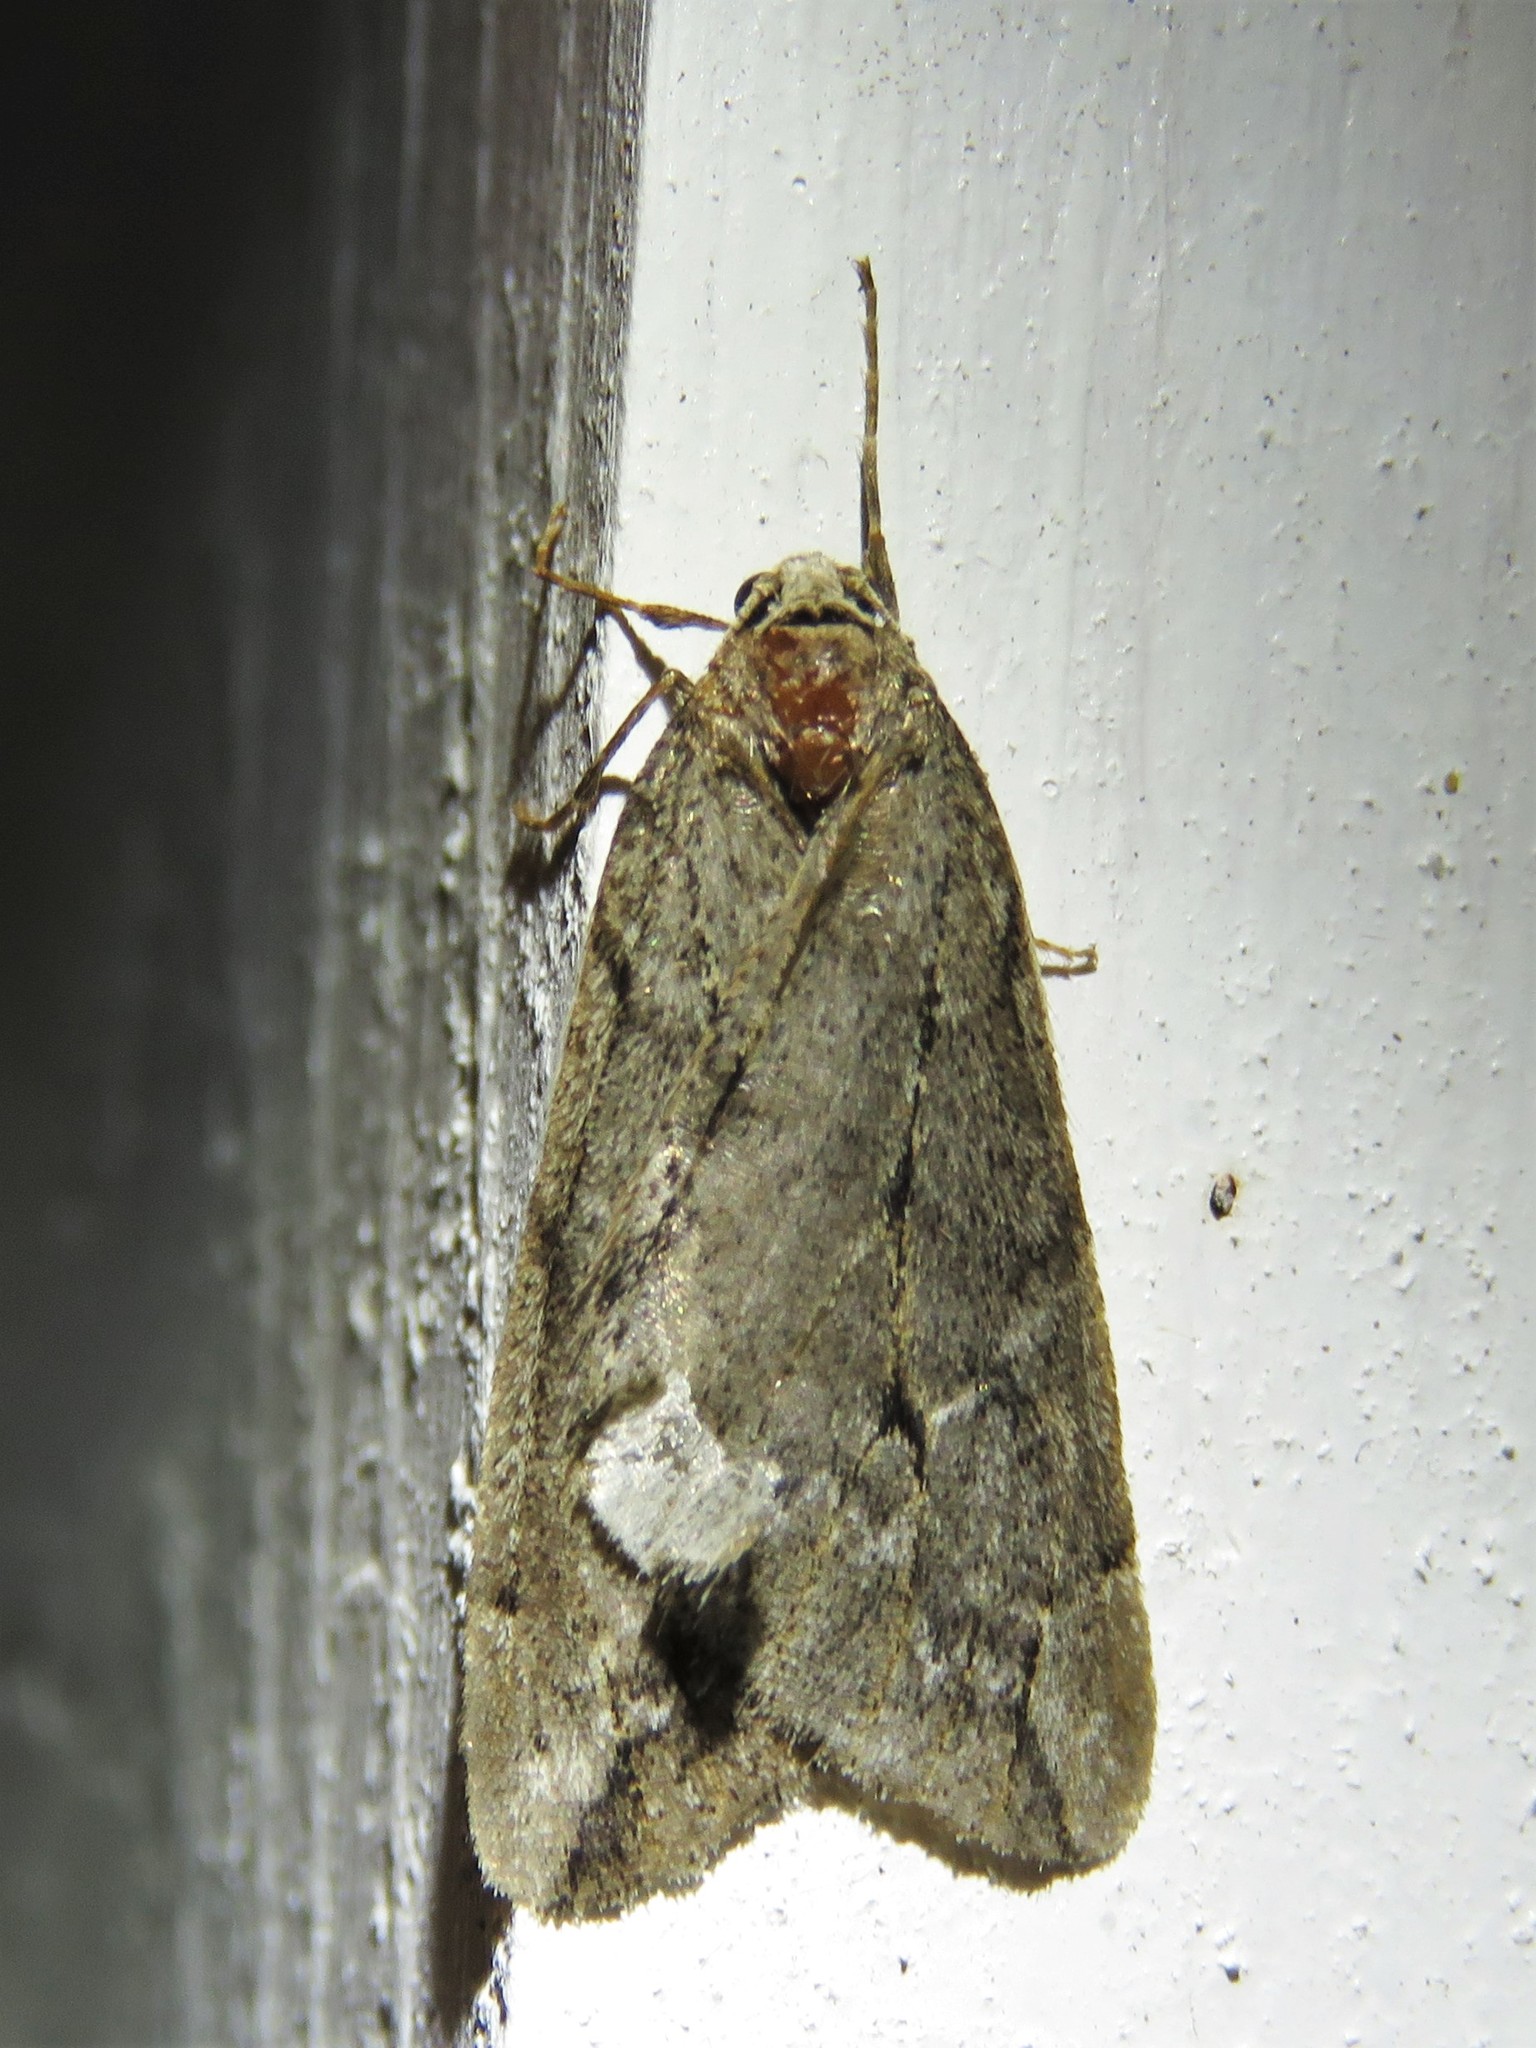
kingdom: Animalia
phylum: Arthropoda
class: Insecta
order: Lepidoptera
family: Geometridae
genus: Paleacrita
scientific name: Paleacrita vernata
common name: Spring cankerworm
